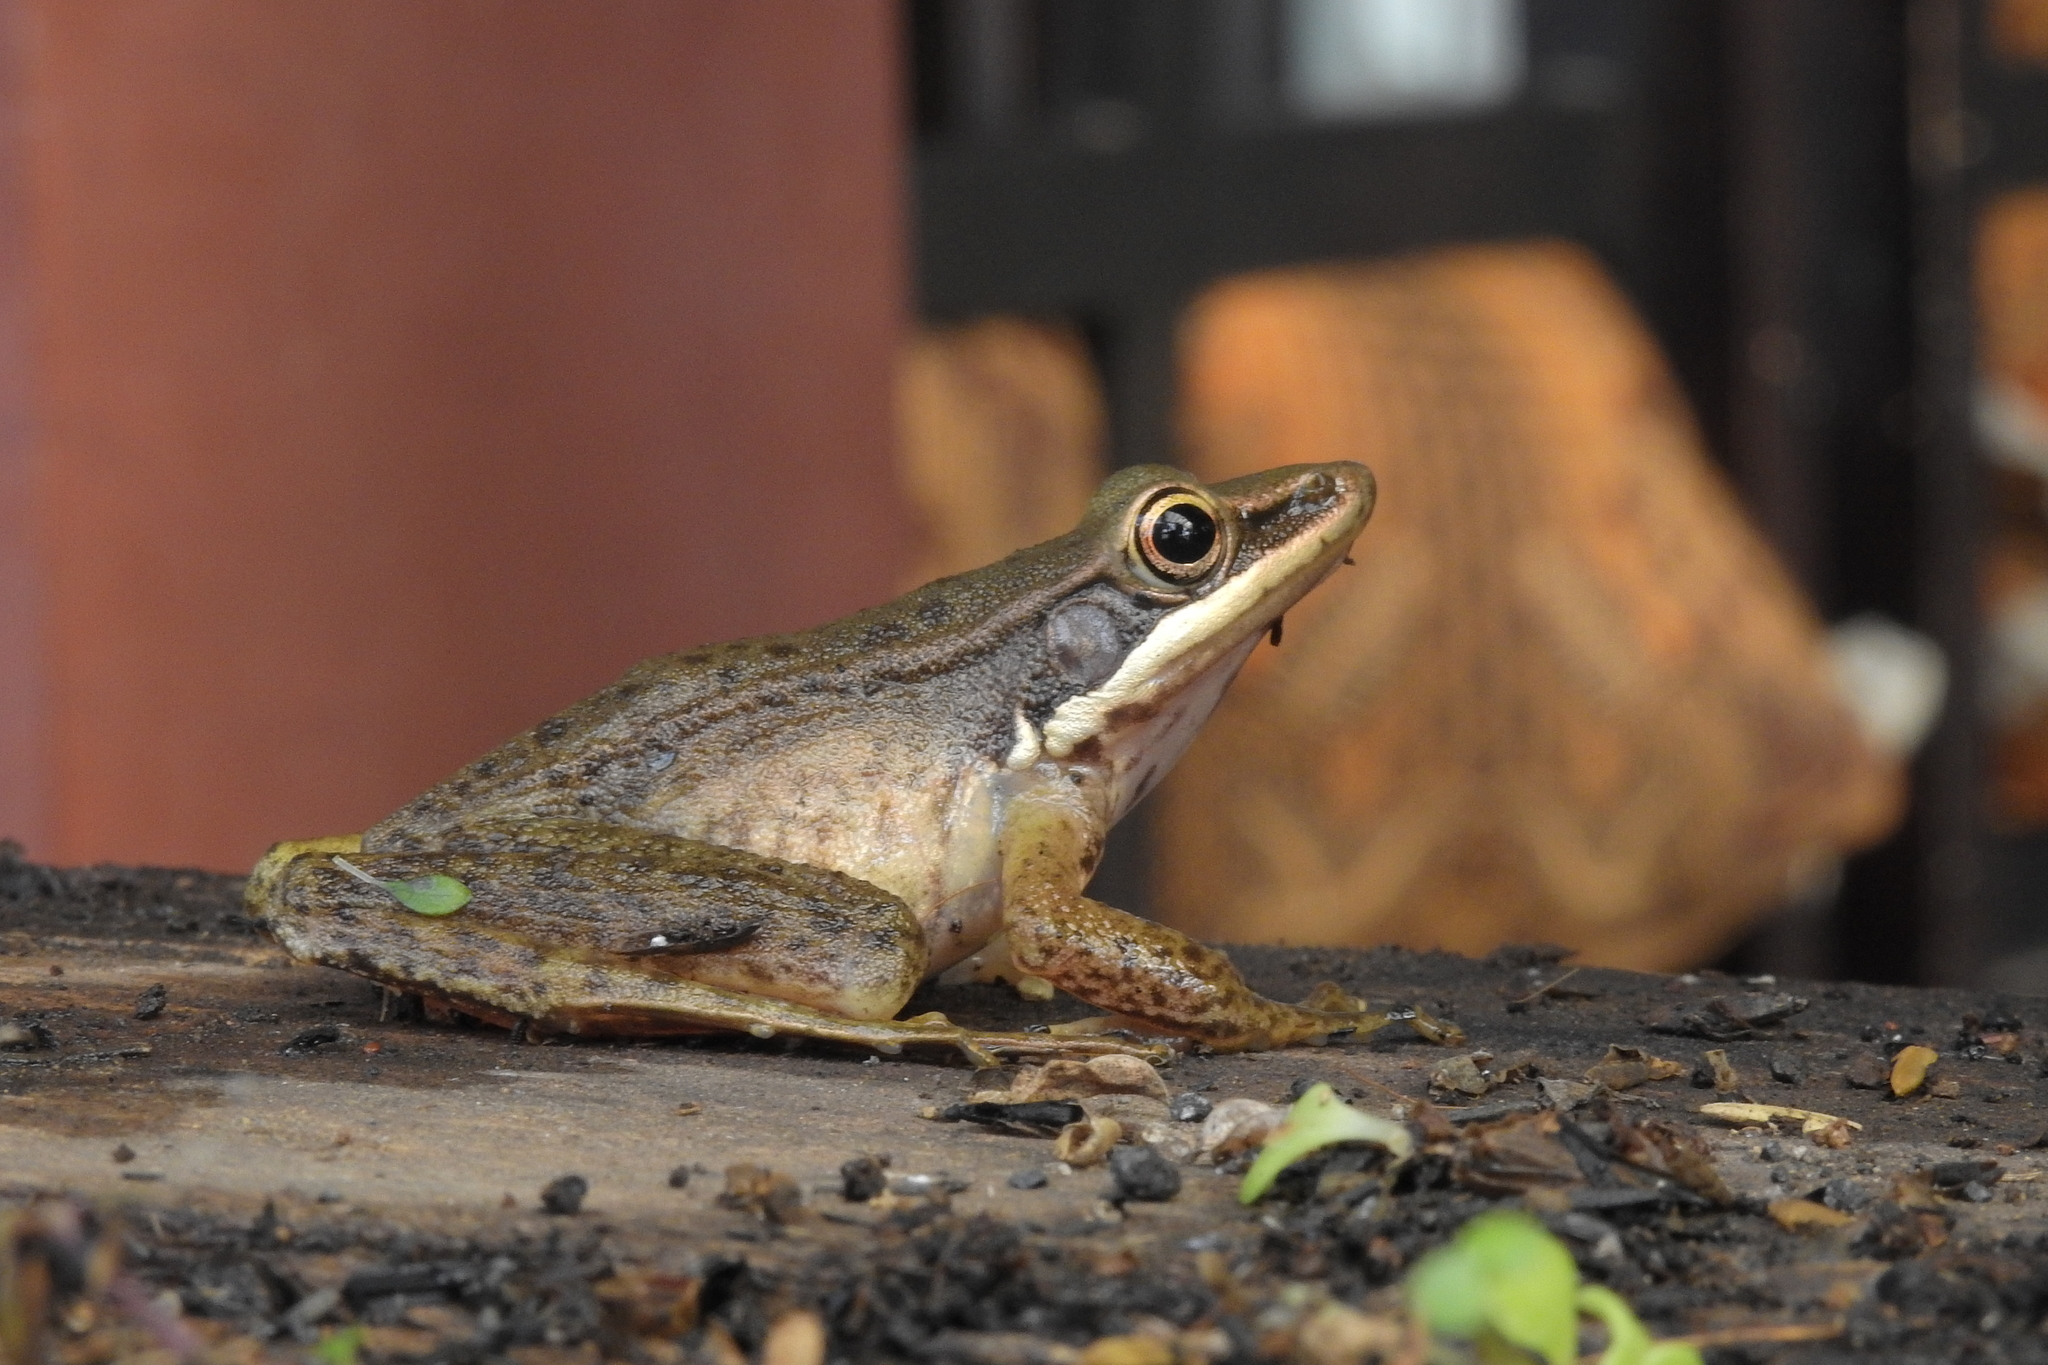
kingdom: Animalia
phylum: Chordata
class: Amphibia
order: Anura
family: Ranidae
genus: Chalcorana
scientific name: Chalcorana chalconota
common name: Schlegel's frog
